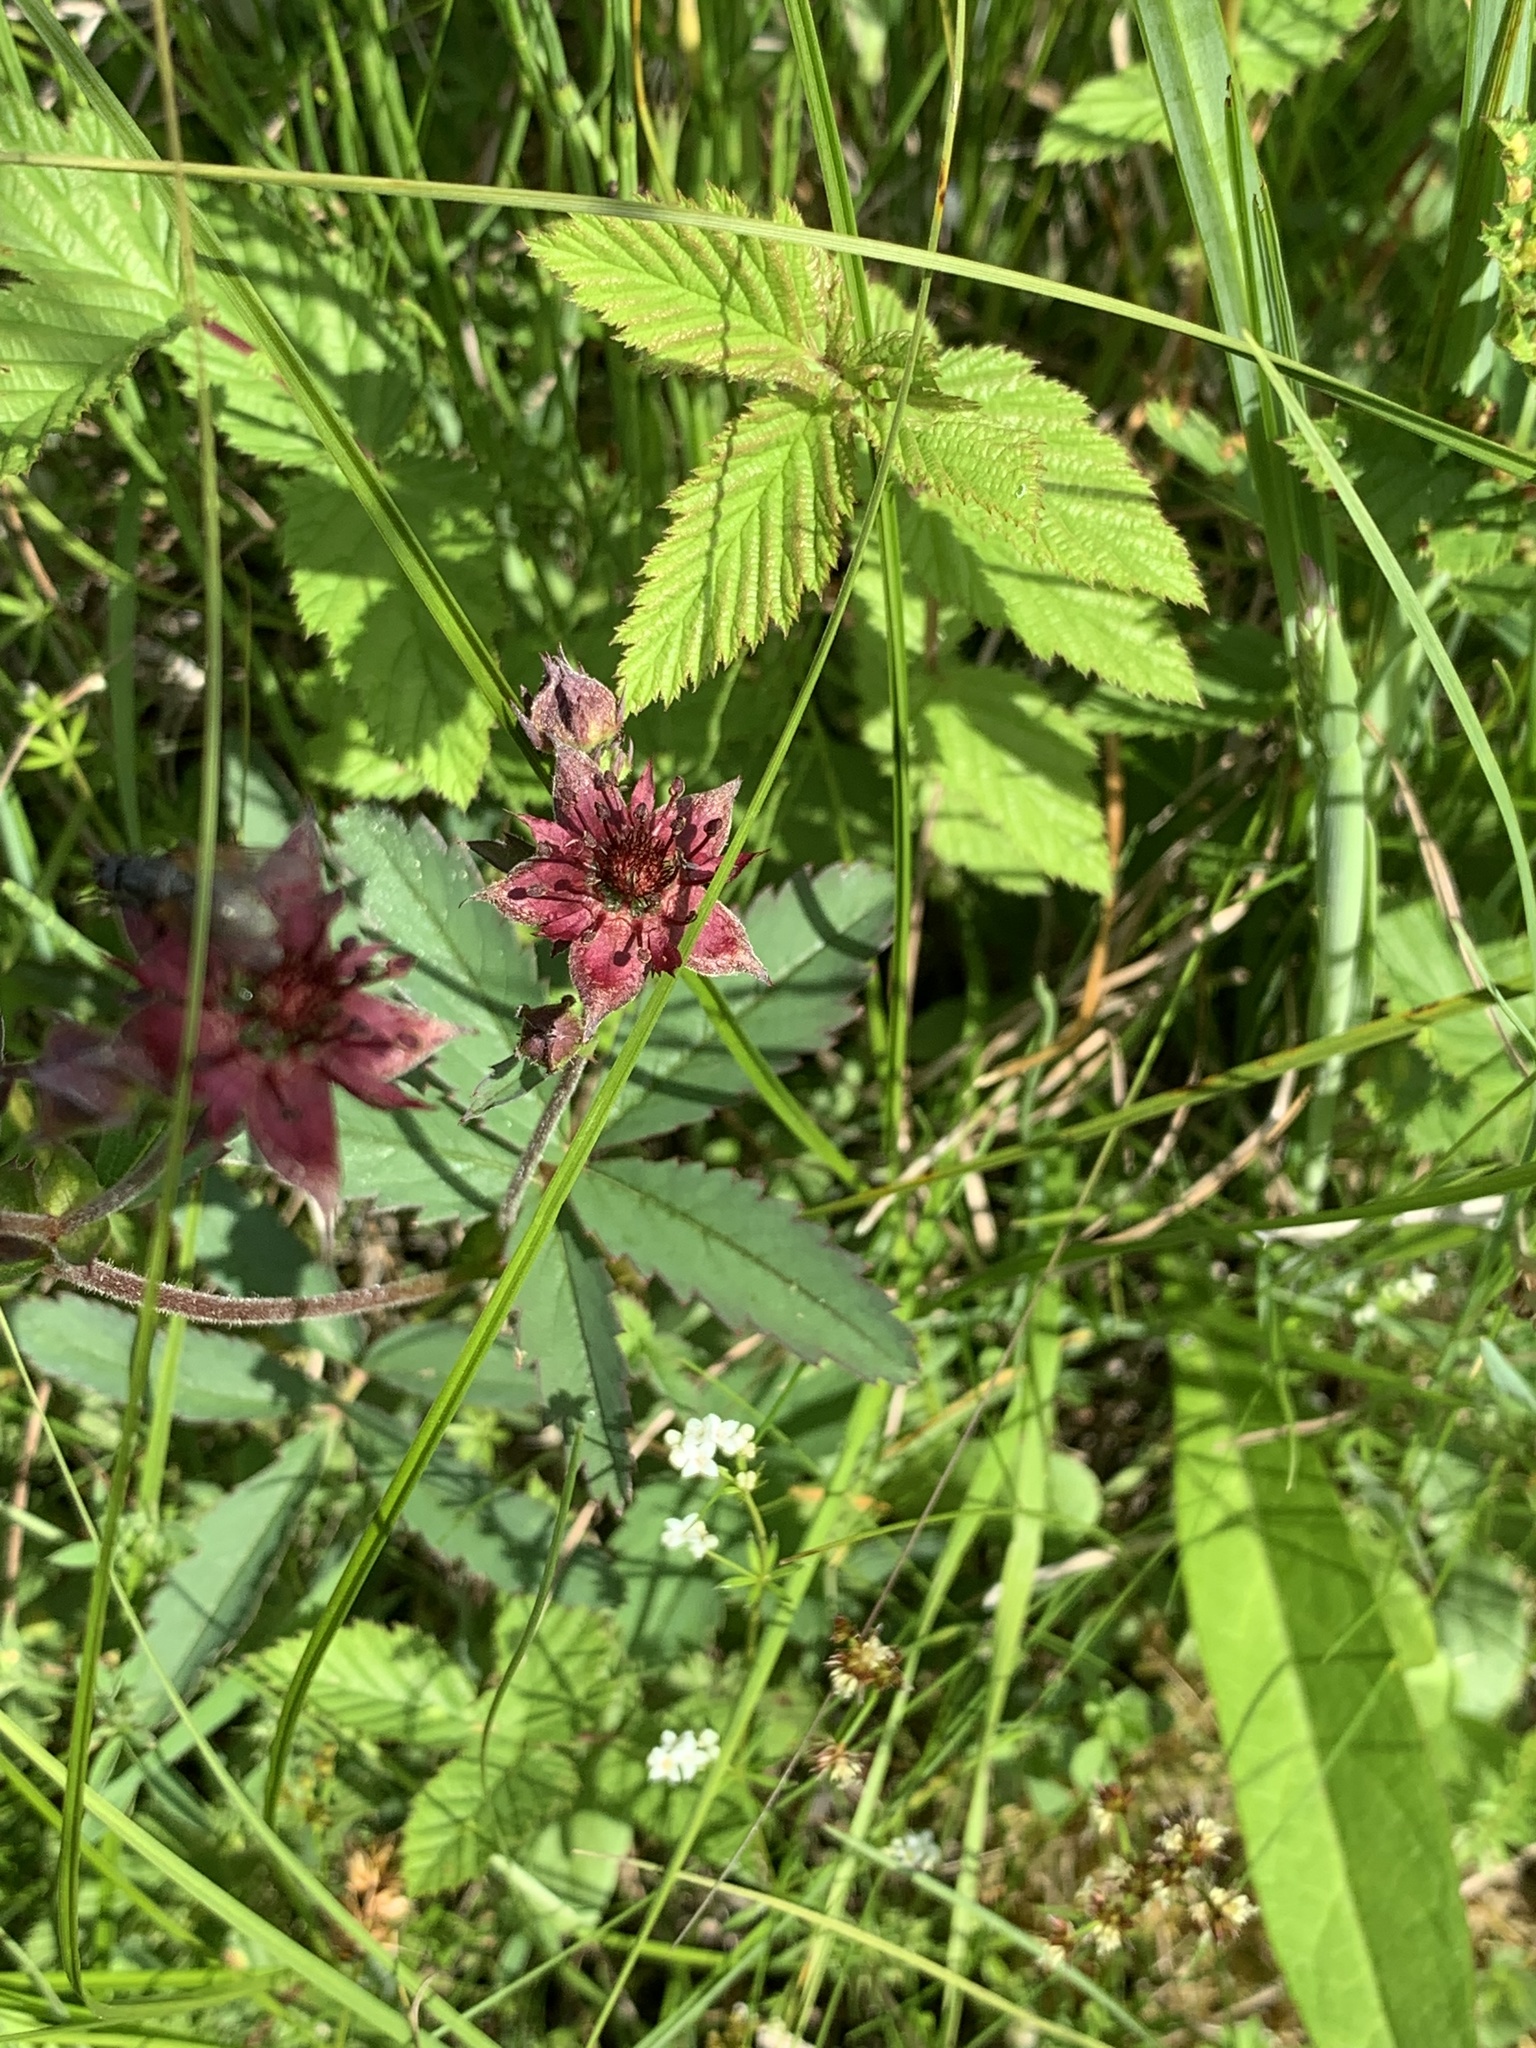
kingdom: Plantae
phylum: Tracheophyta
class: Magnoliopsida
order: Rosales
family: Rosaceae
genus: Comarum
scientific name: Comarum palustre
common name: Marsh cinquefoil
